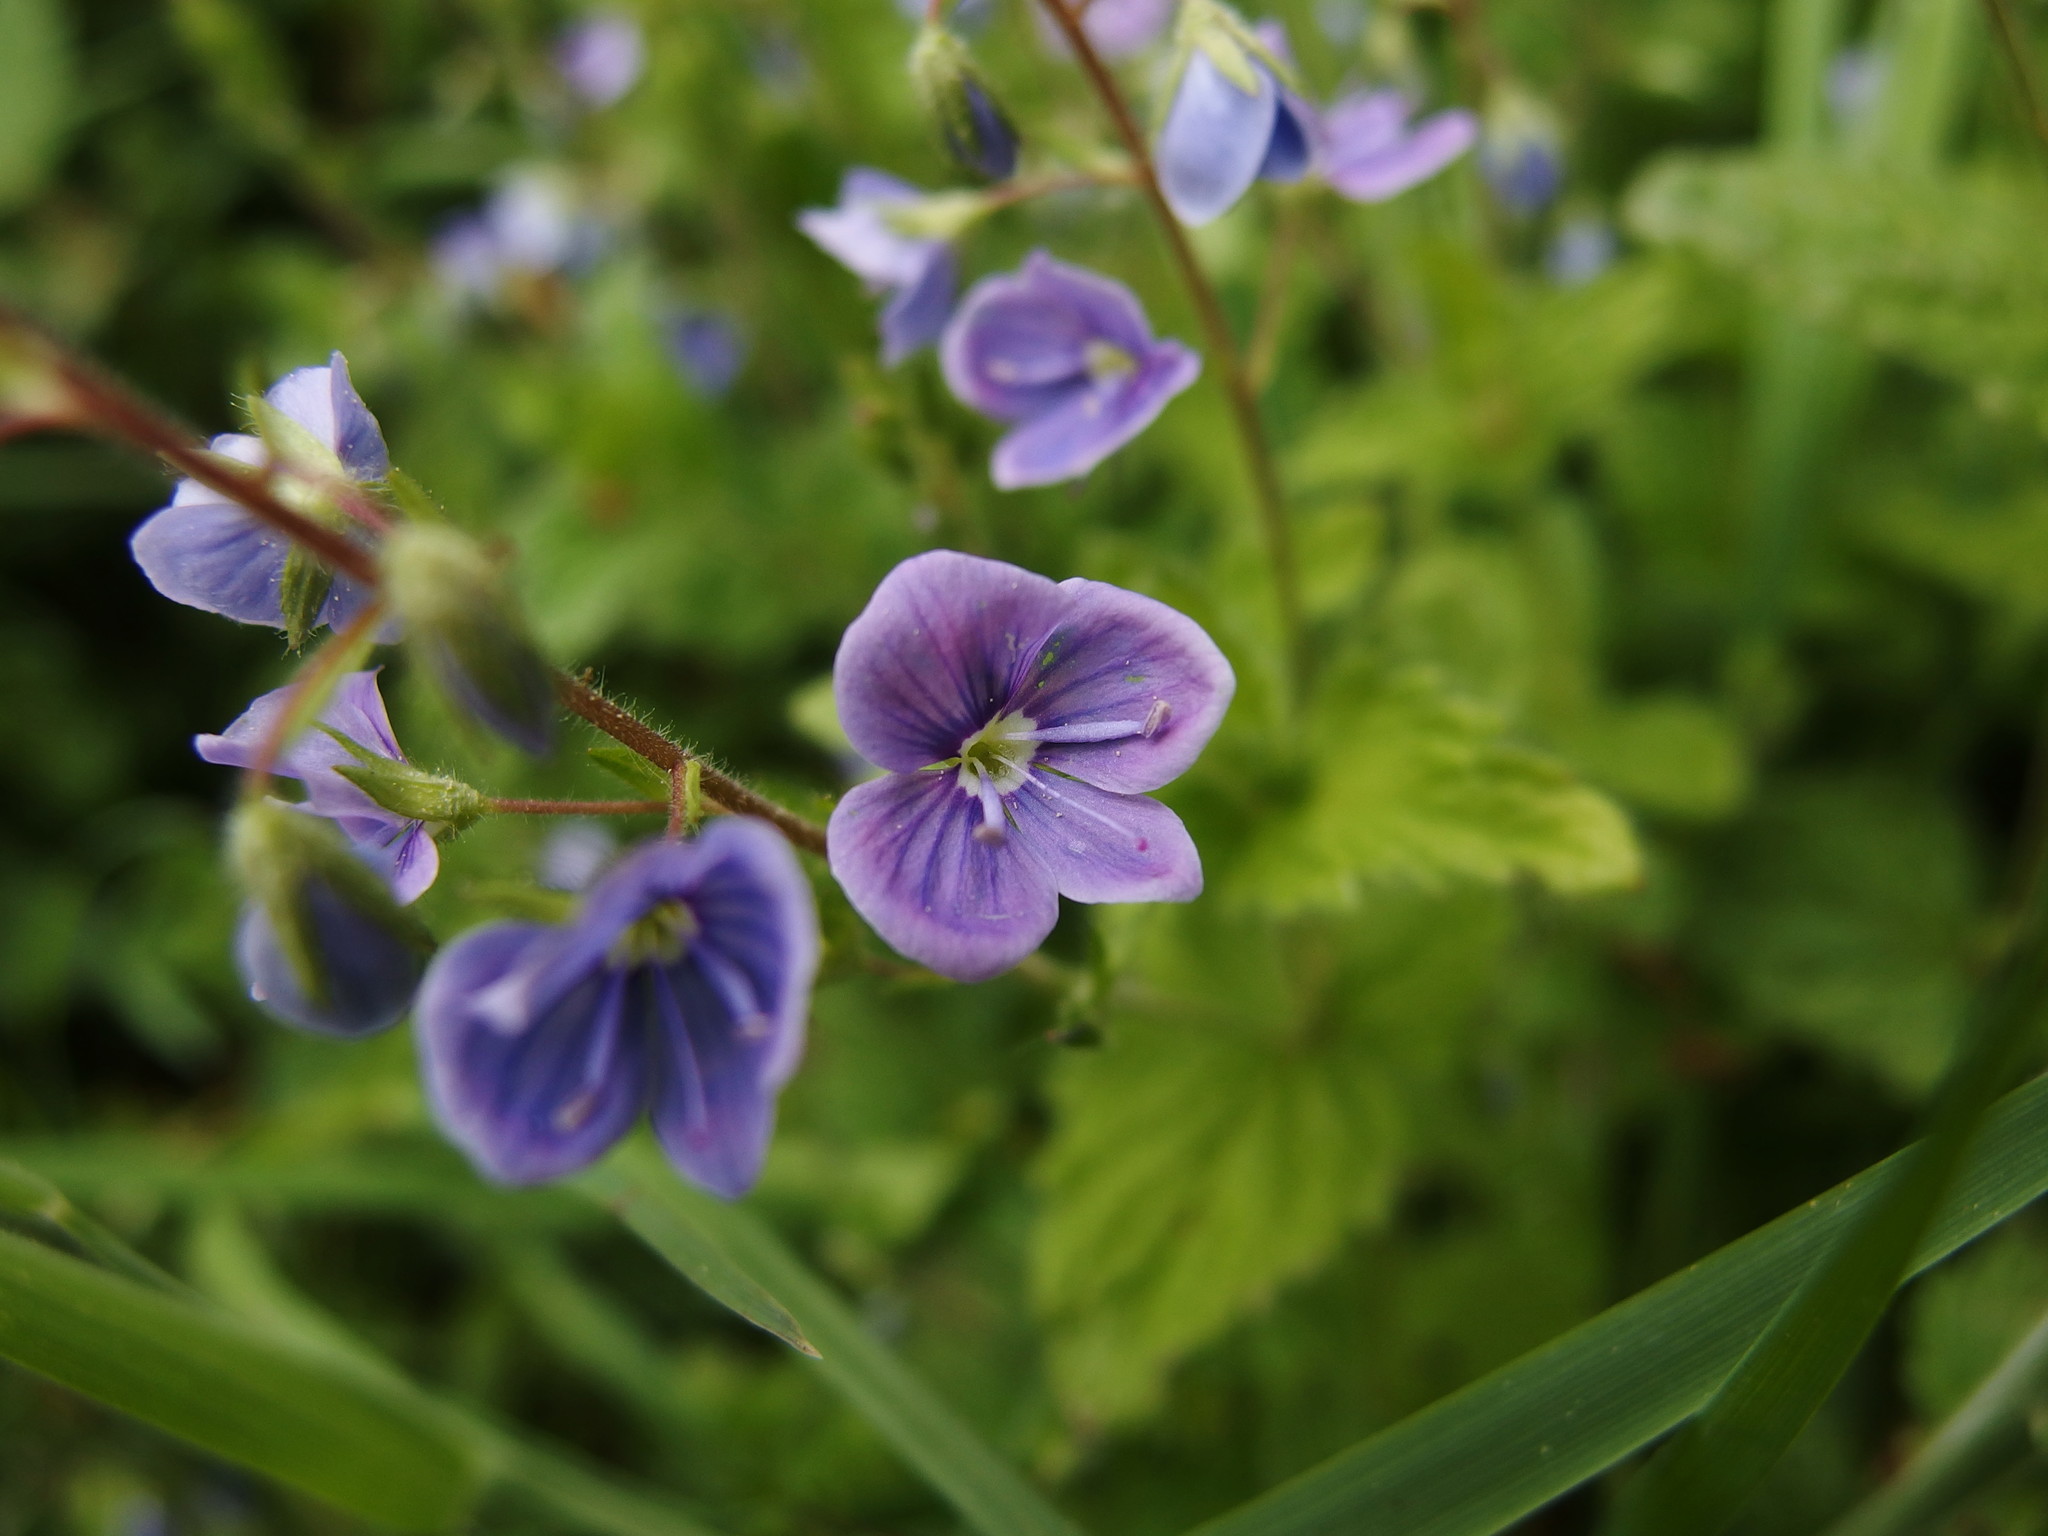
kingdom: Plantae
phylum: Tracheophyta
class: Magnoliopsida
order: Lamiales
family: Plantaginaceae
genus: Veronica
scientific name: Veronica chamaedrys
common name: Germander speedwell
